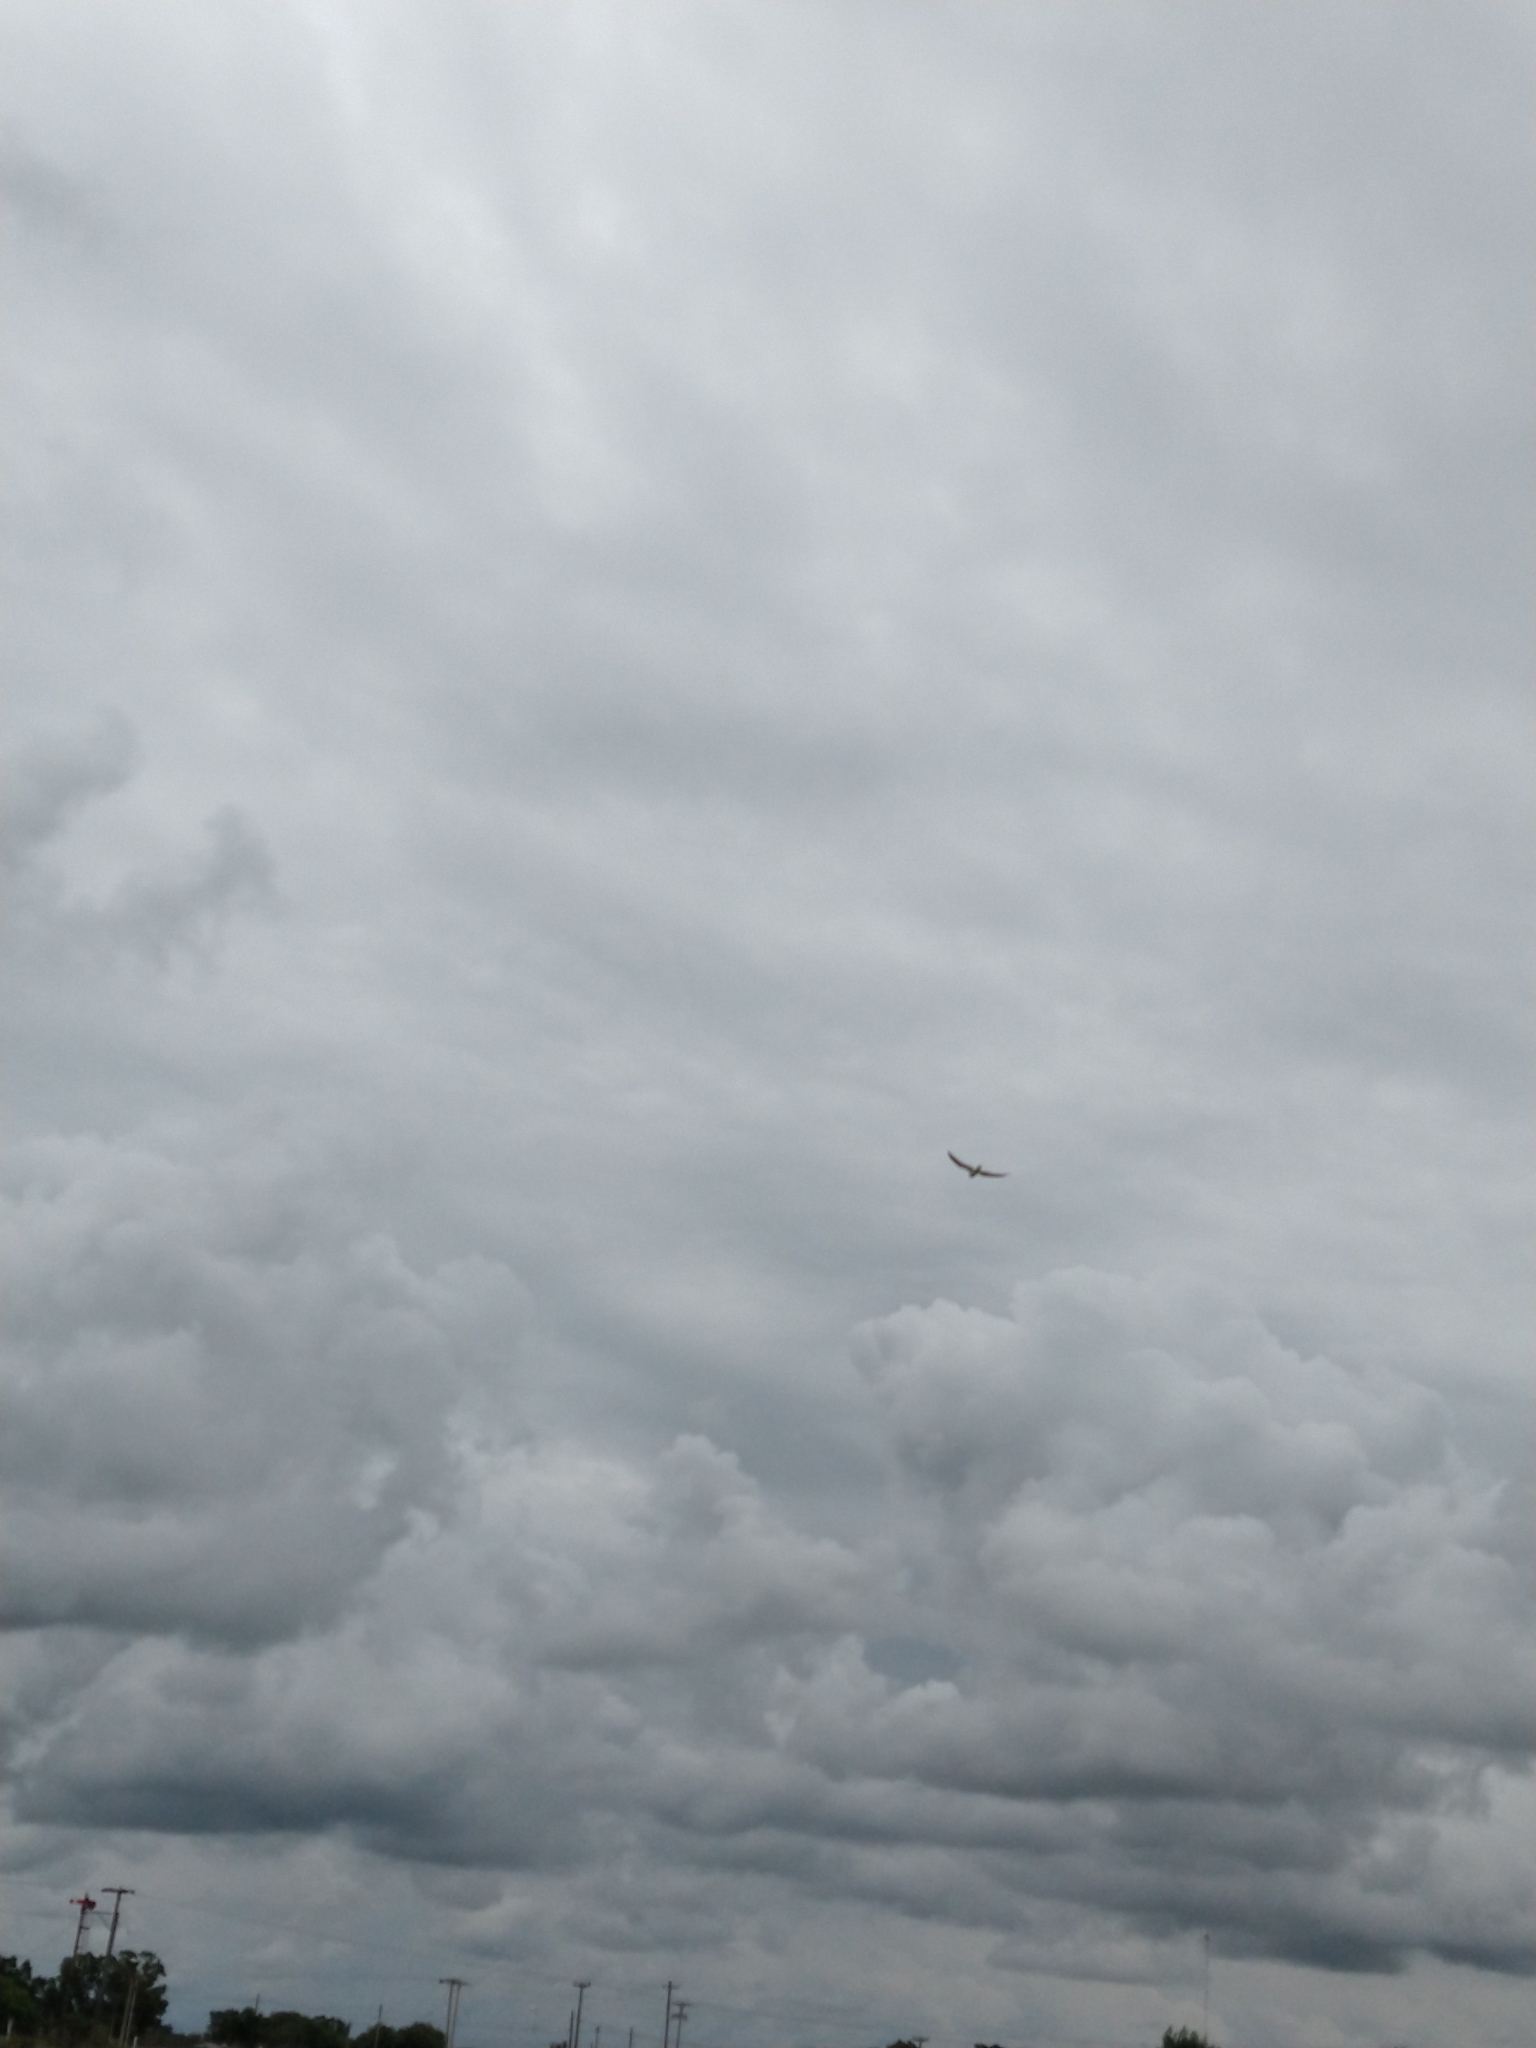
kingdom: Animalia
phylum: Chordata
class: Aves
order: Accipitriformes
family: Accipitridae
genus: Elanus
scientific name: Elanus leucurus
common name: White-tailed kite
